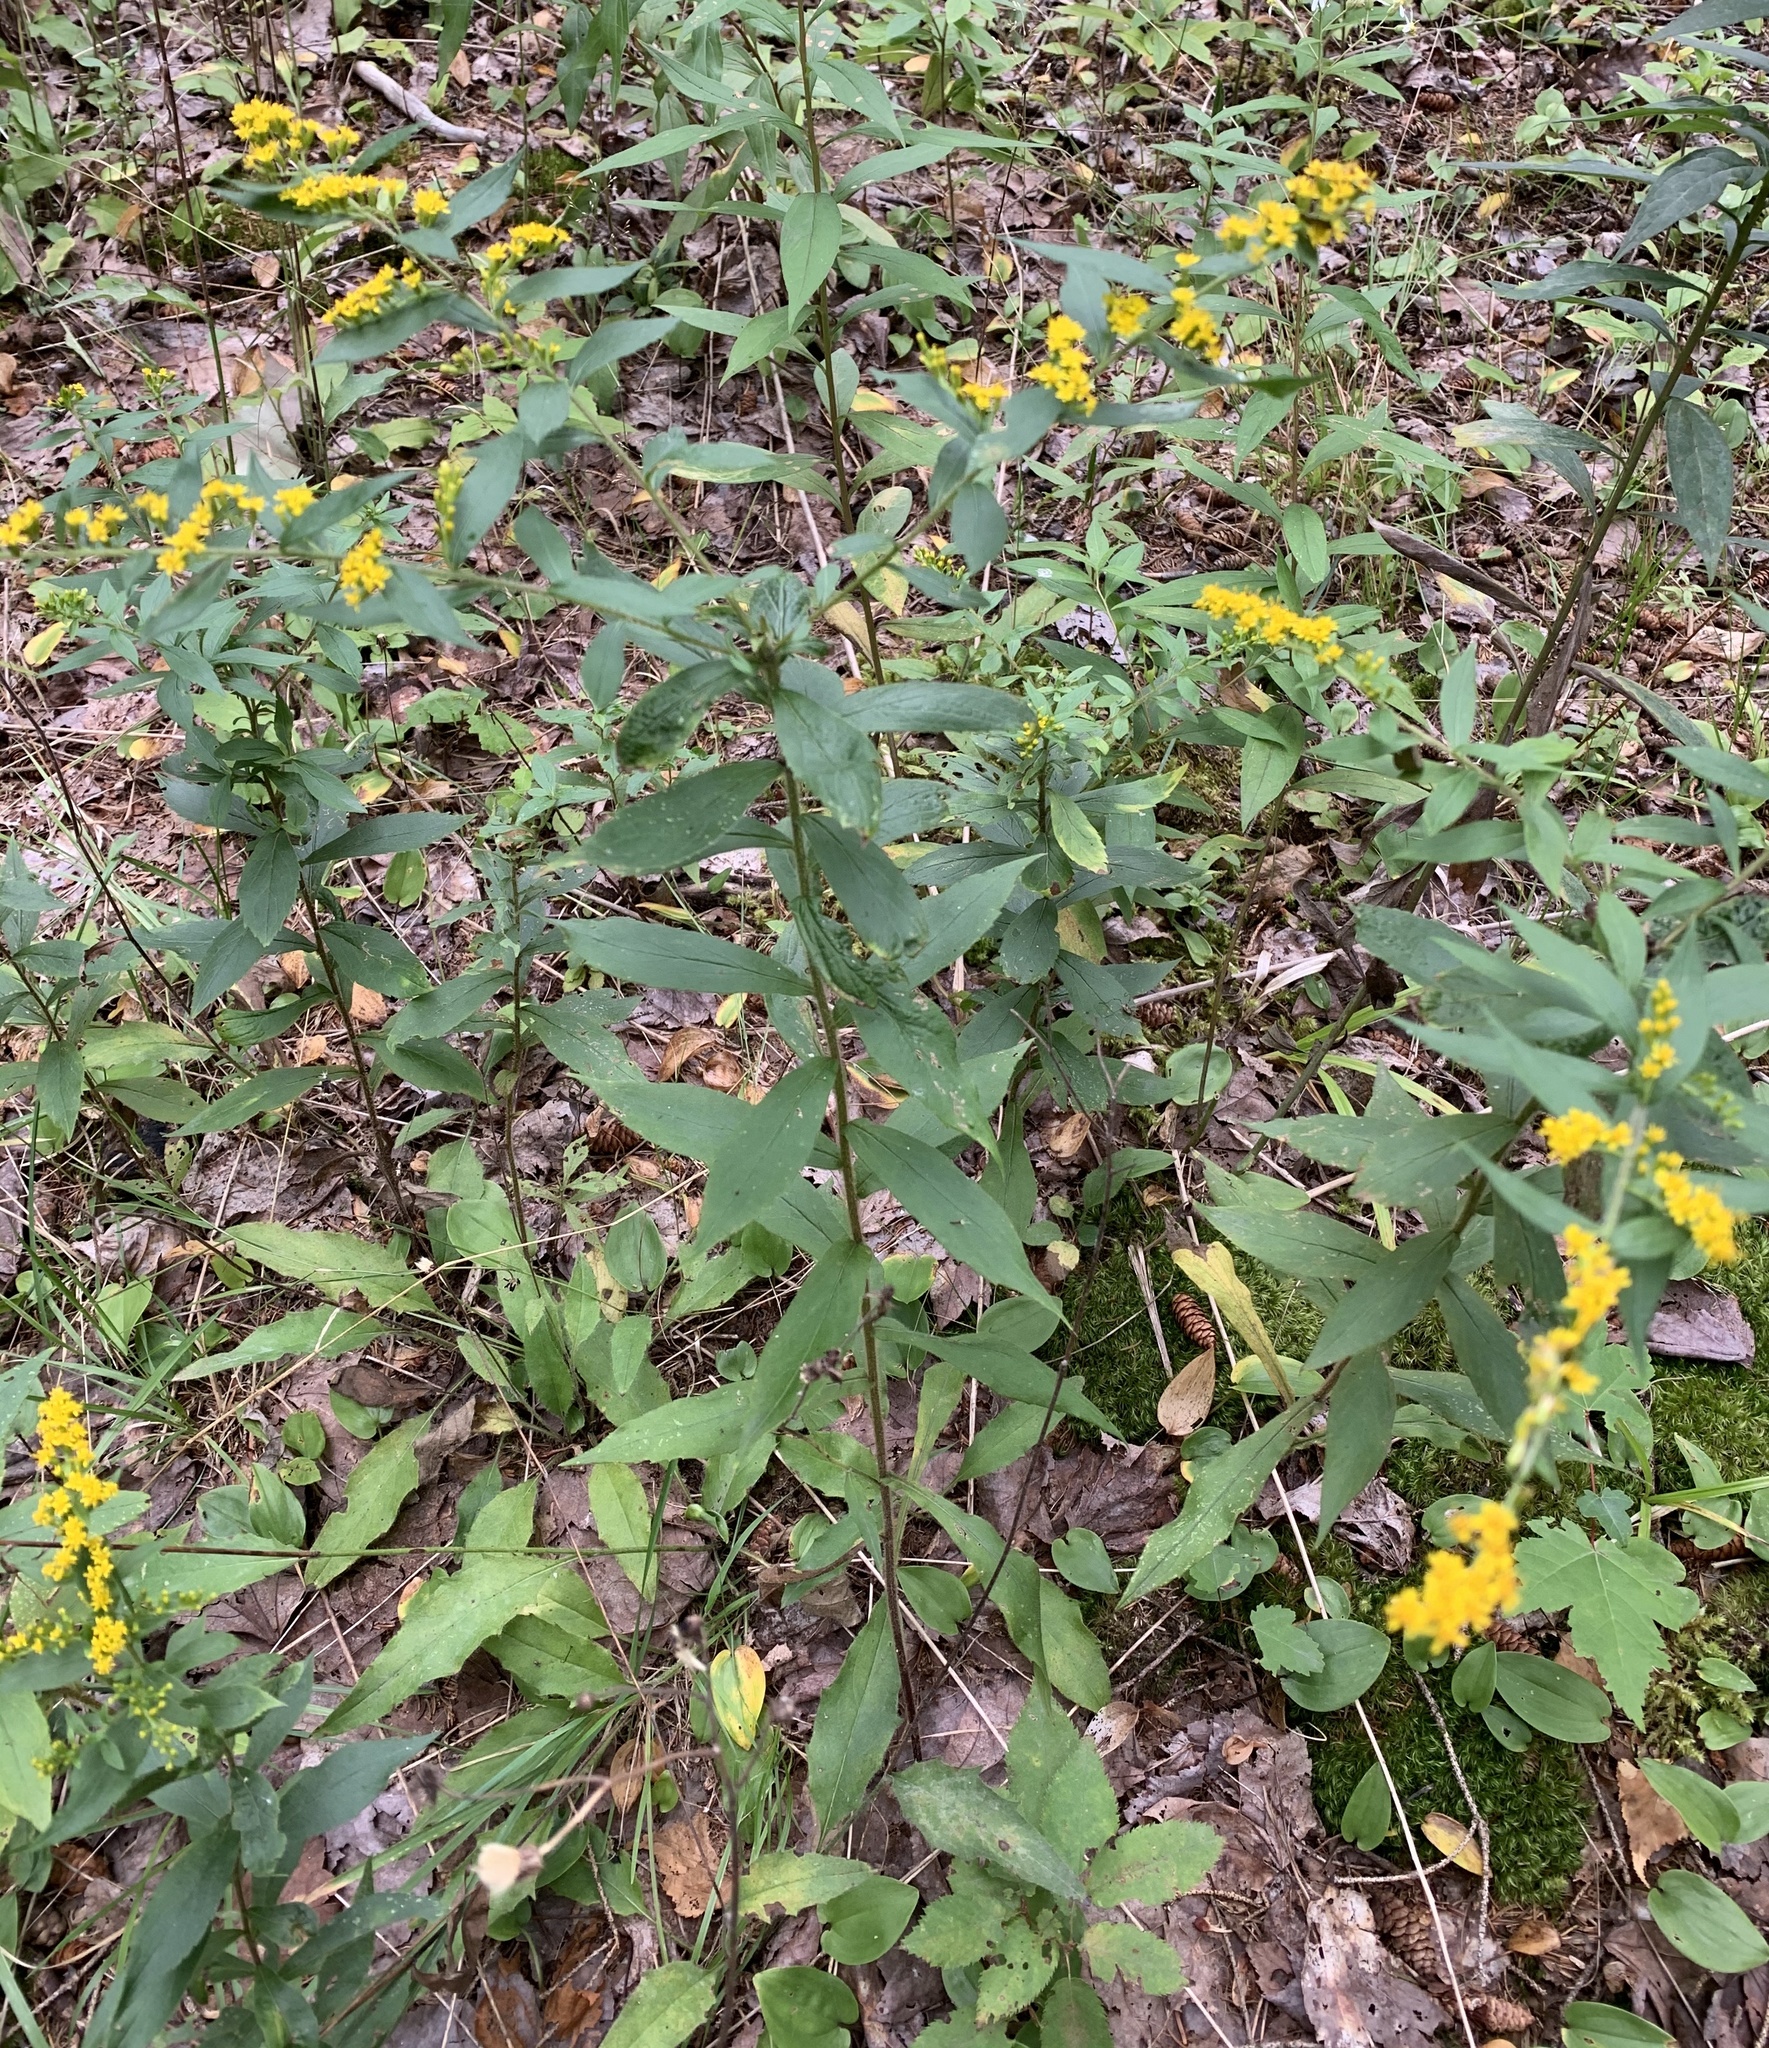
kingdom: Plantae
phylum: Tracheophyta
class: Magnoliopsida
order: Asterales
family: Asteraceae
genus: Solidago
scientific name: Solidago rugosa
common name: Rough-stemmed goldenrod
